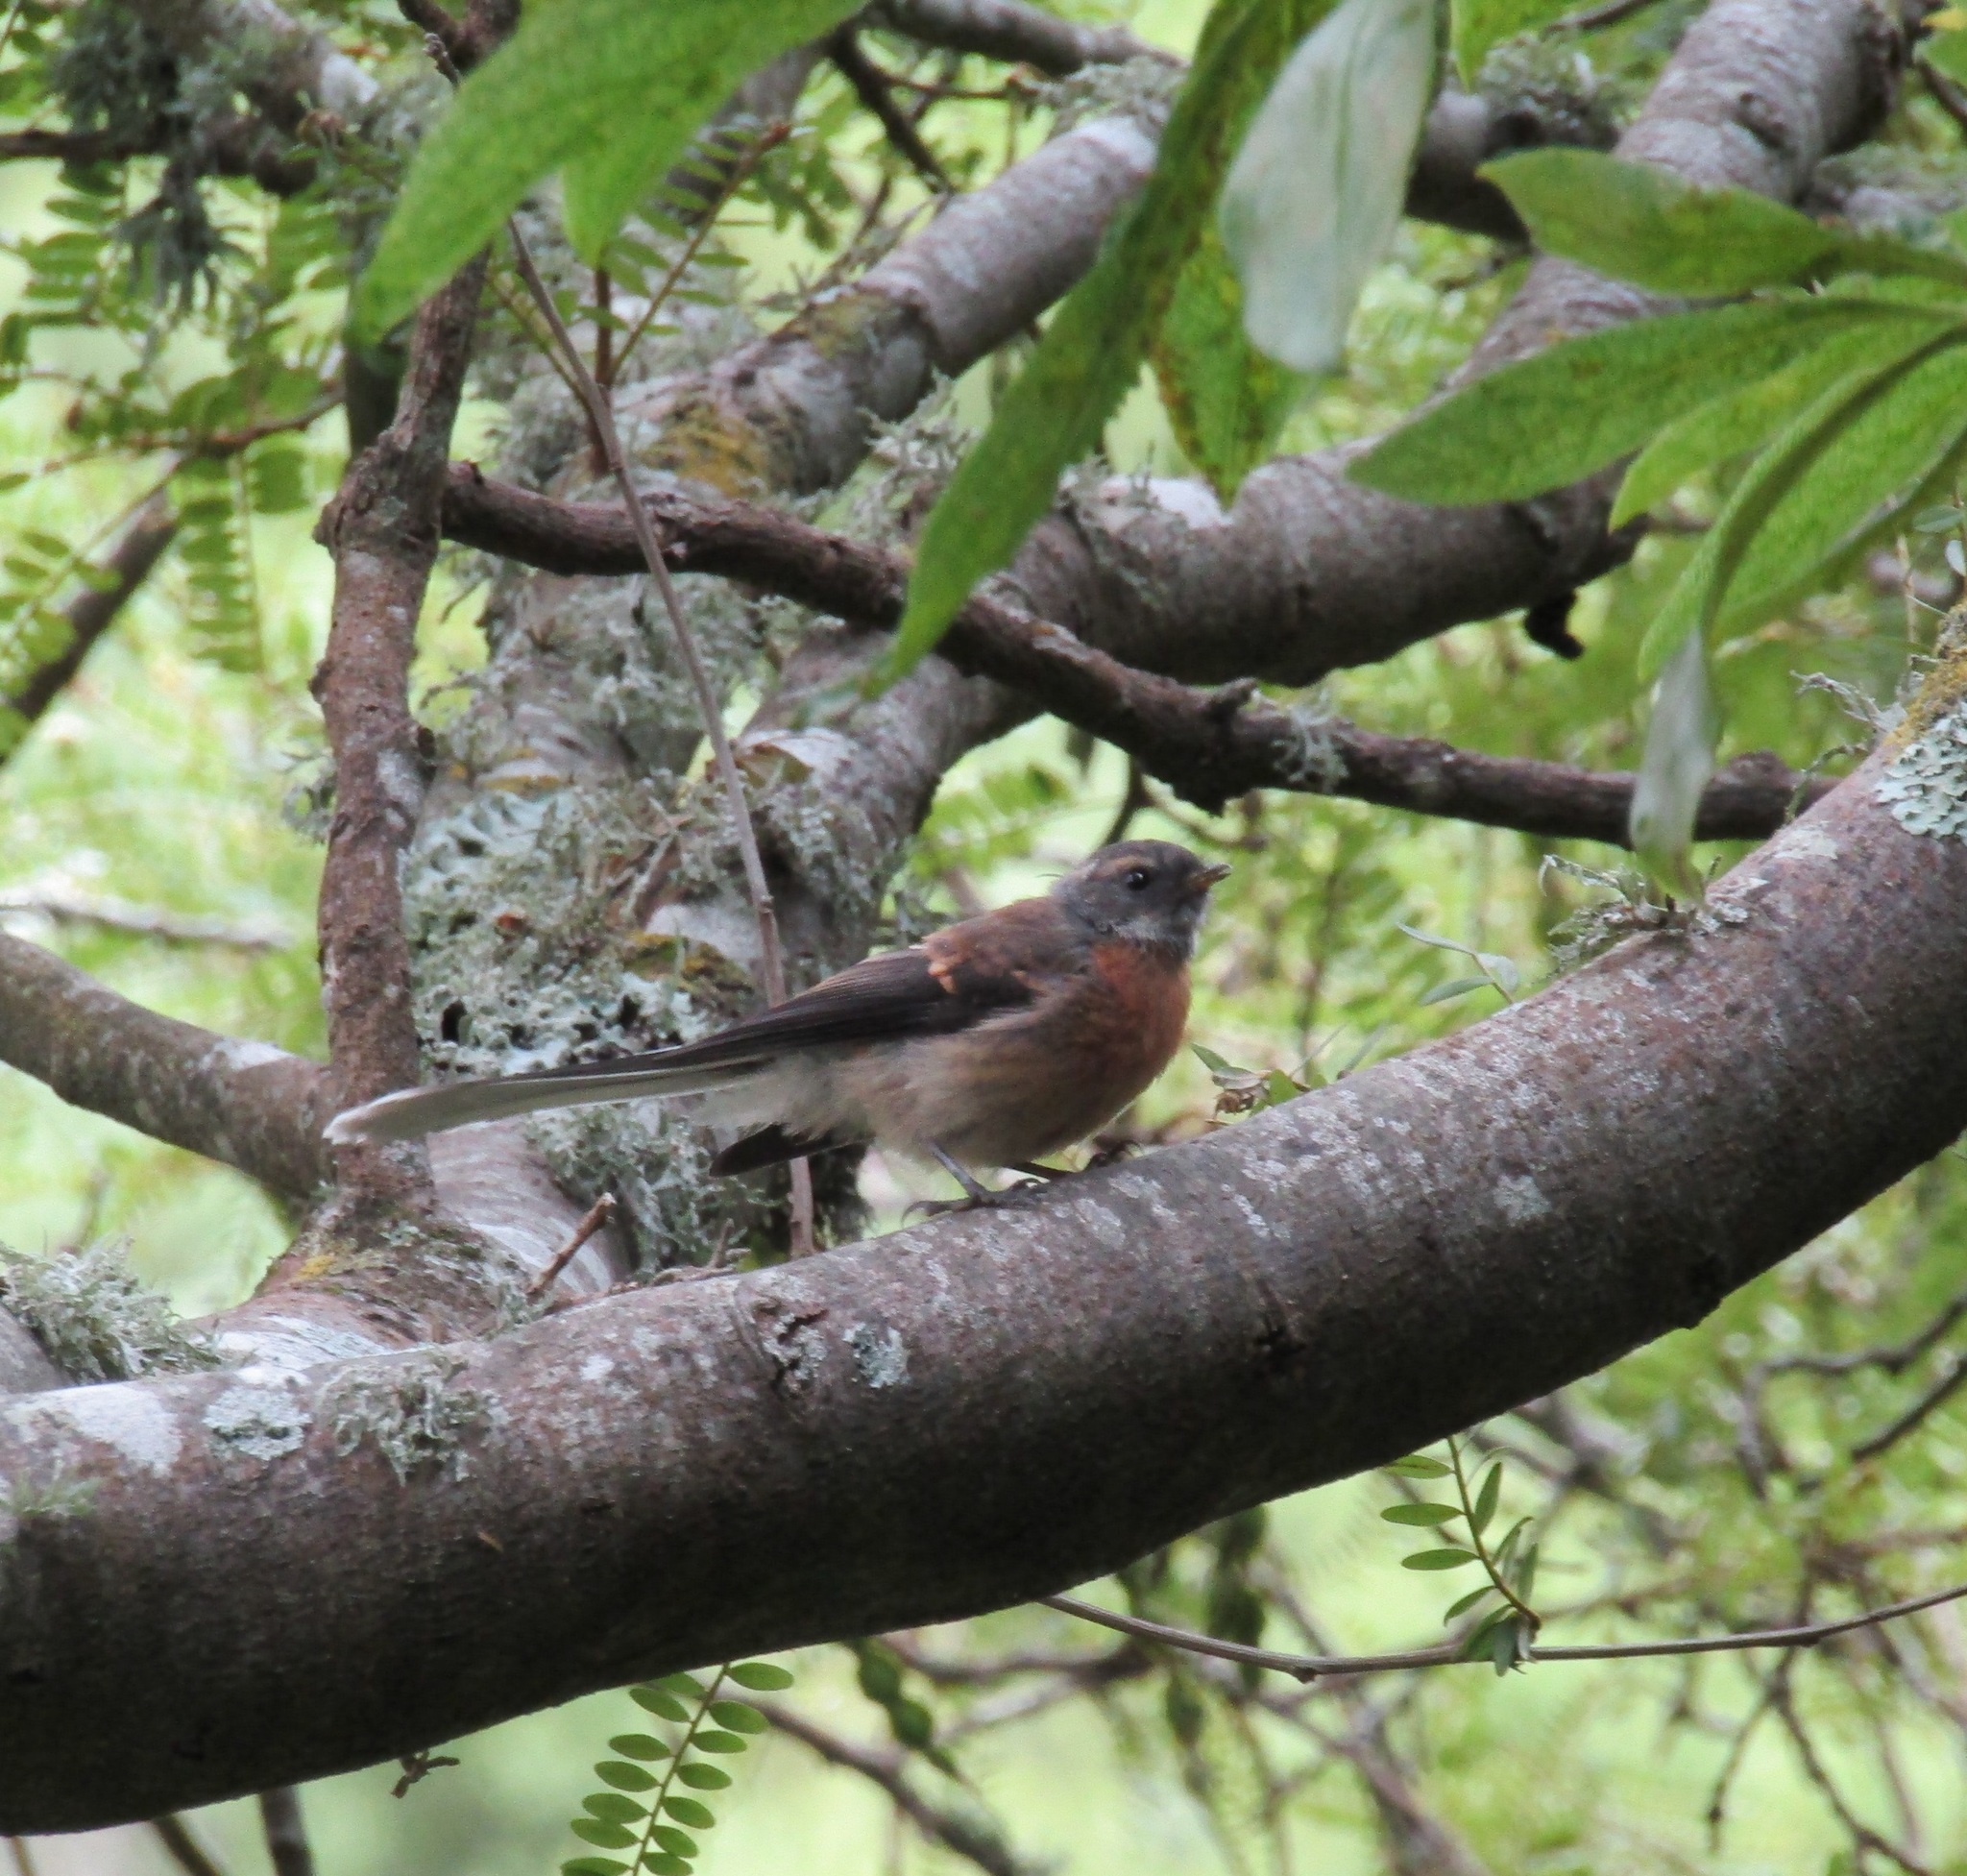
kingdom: Animalia
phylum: Chordata
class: Aves
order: Passeriformes
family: Rhipiduridae
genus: Rhipidura
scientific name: Rhipidura fuliginosa
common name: New zealand fantail
